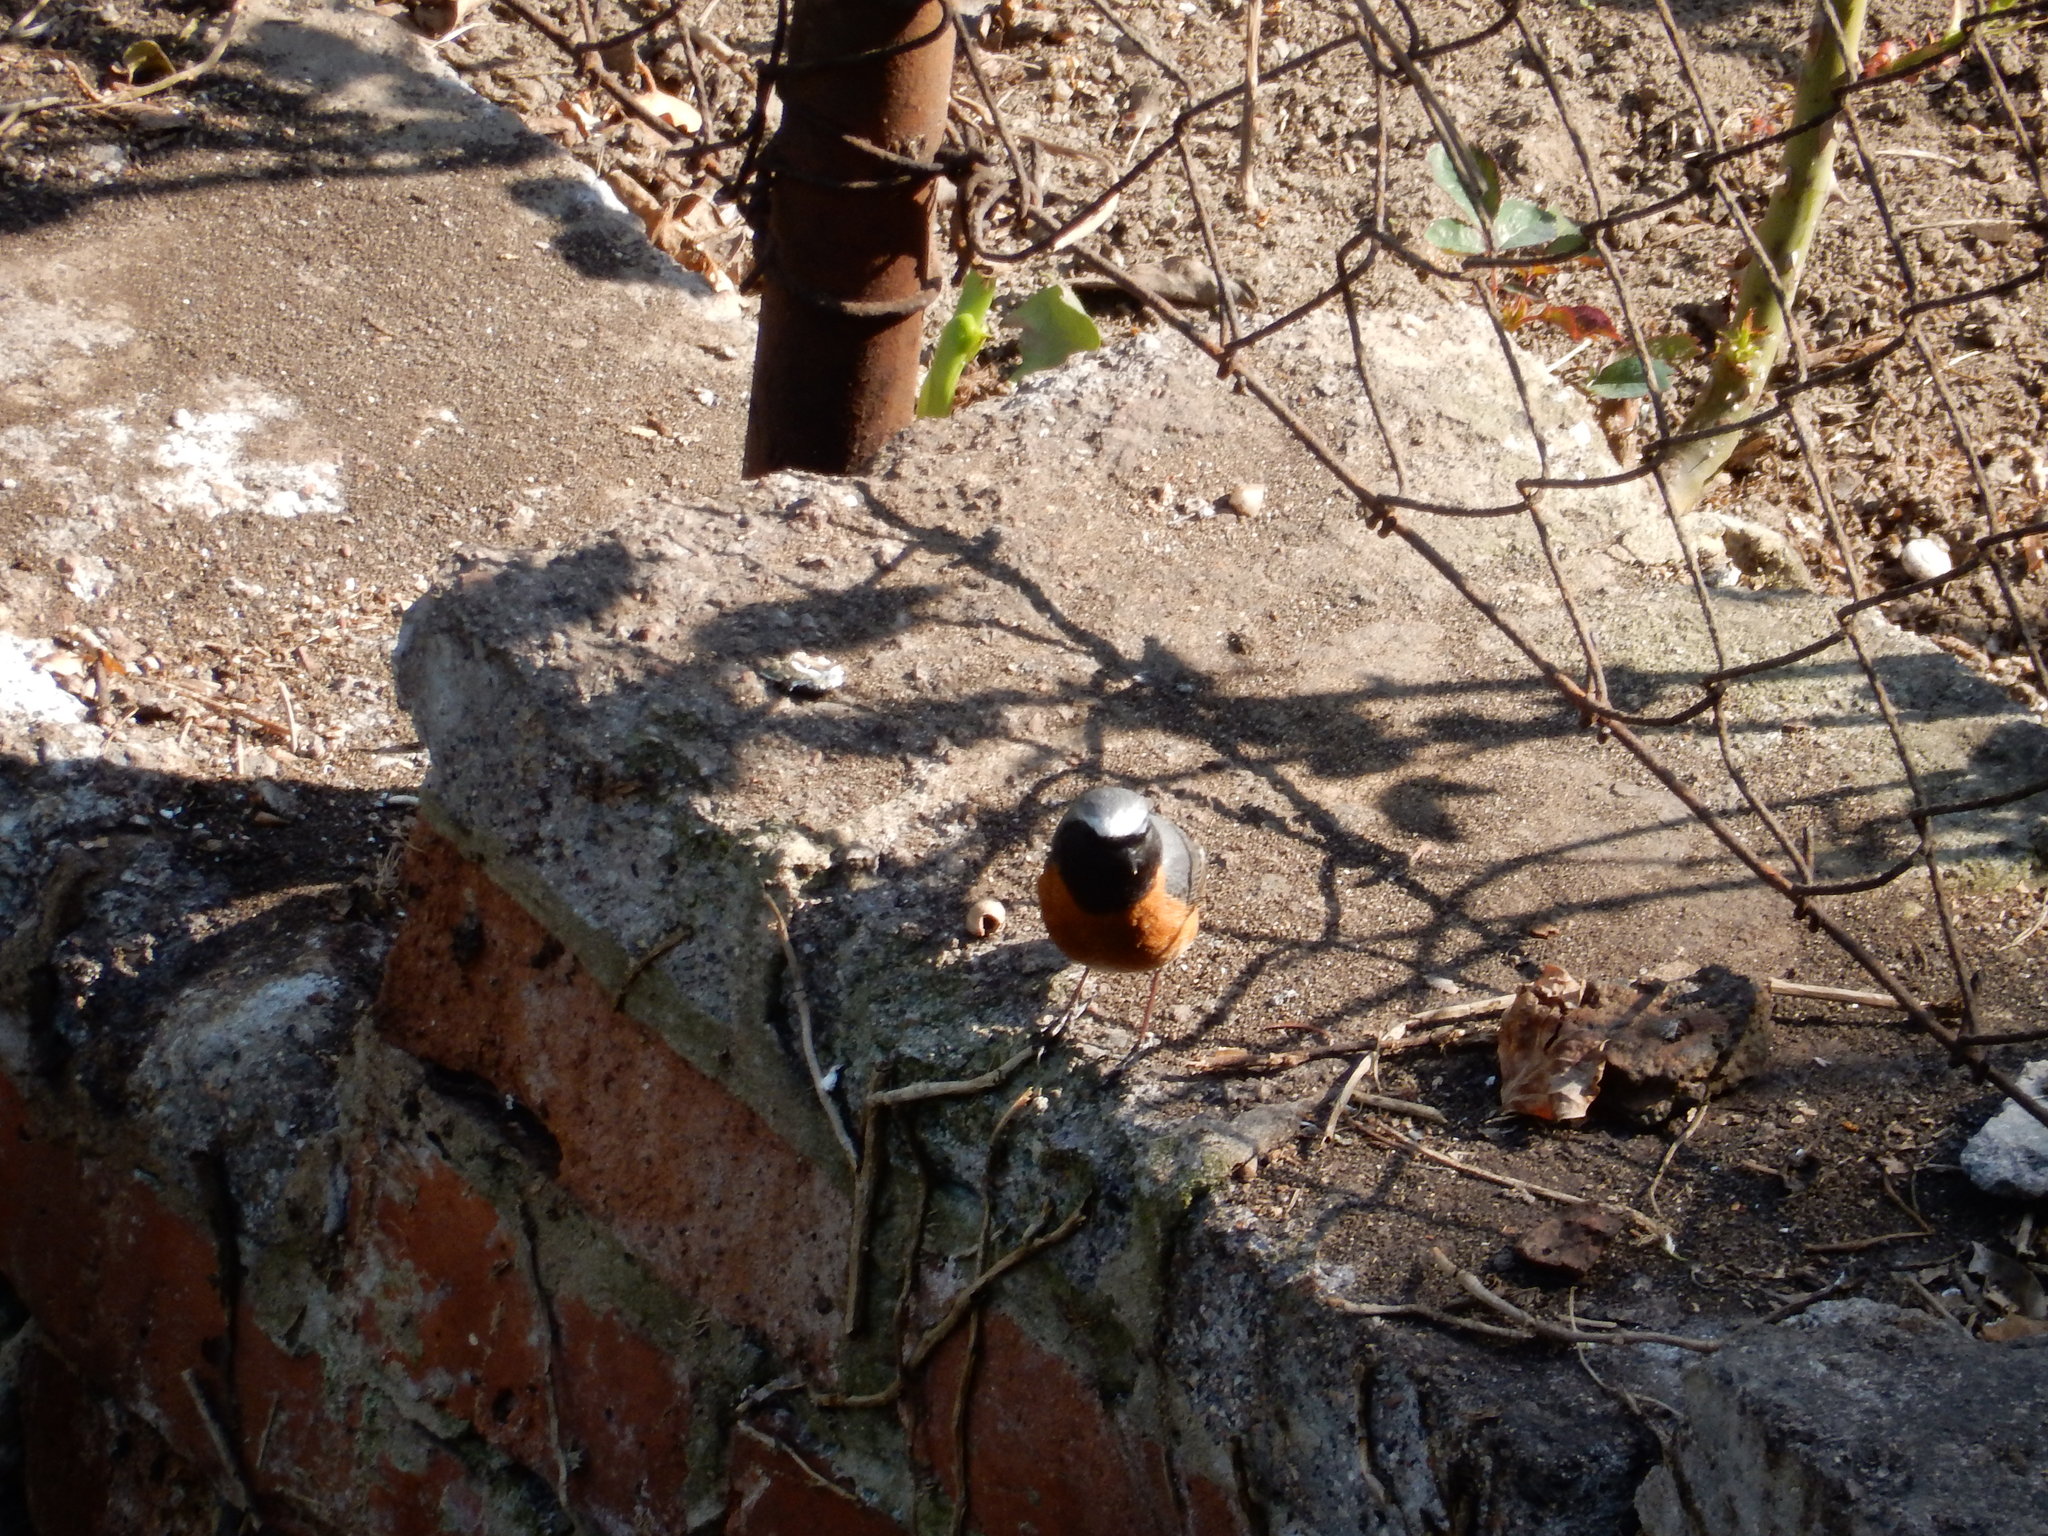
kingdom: Animalia
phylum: Chordata
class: Aves
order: Passeriformes
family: Muscicapidae
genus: Phoenicurus
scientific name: Phoenicurus phoenicurus
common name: Common redstart
